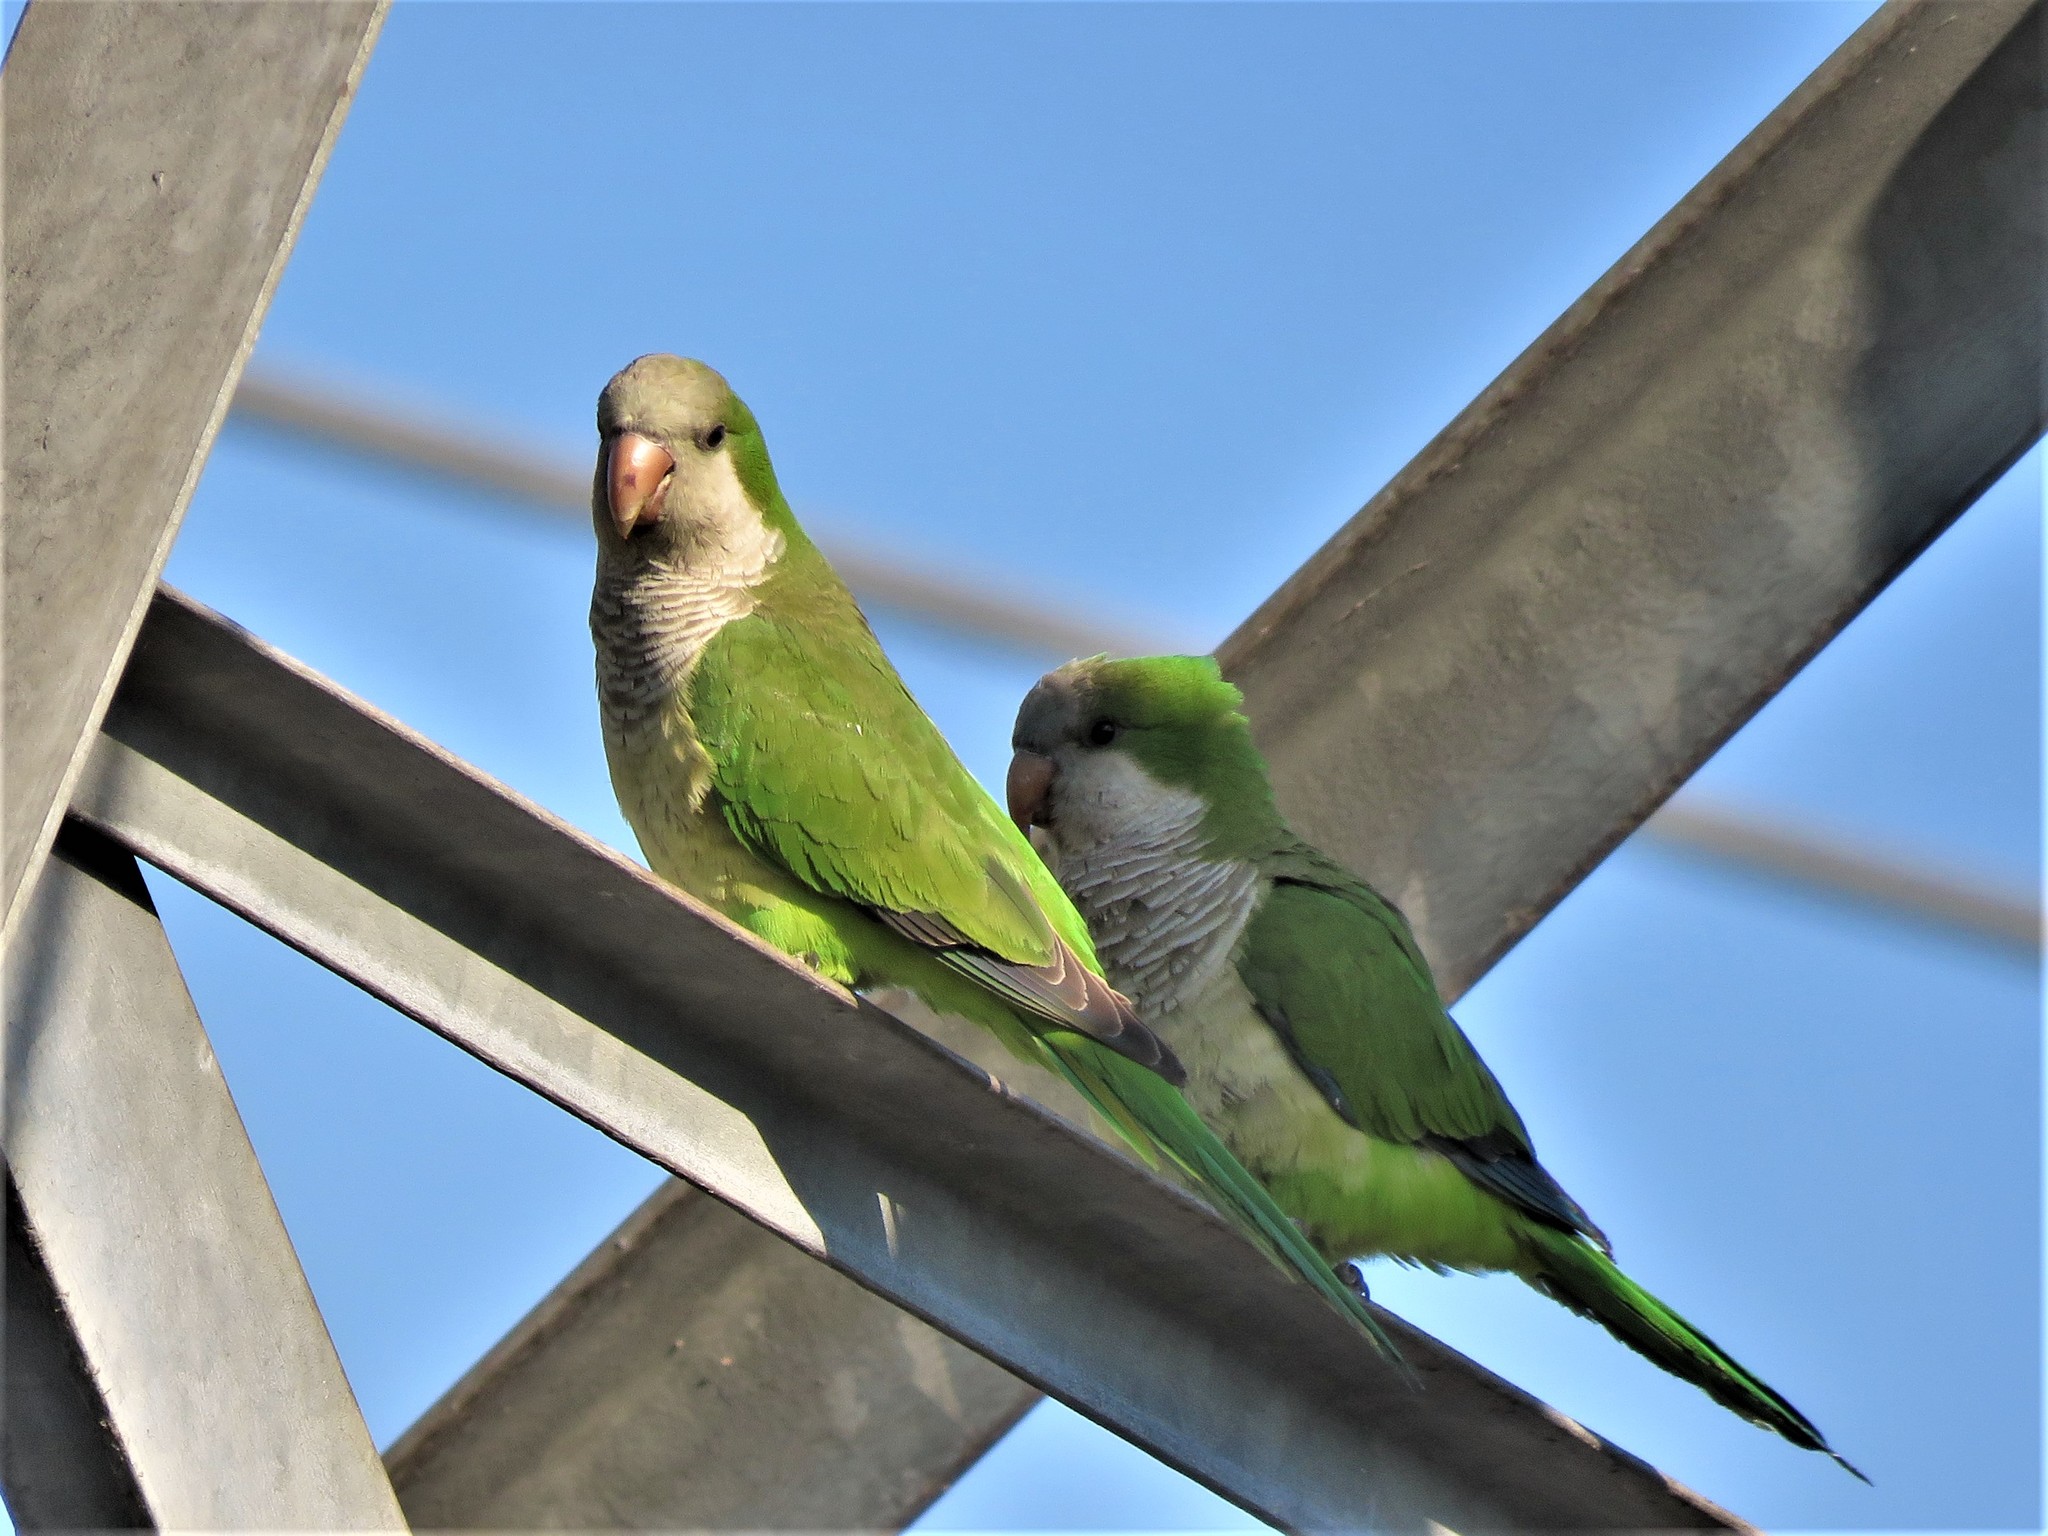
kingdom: Animalia
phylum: Chordata
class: Aves
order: Psittaciformes
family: Psittacidae
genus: Myiopsitta
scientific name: Myiopsitta monachus
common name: Monk parakeet
